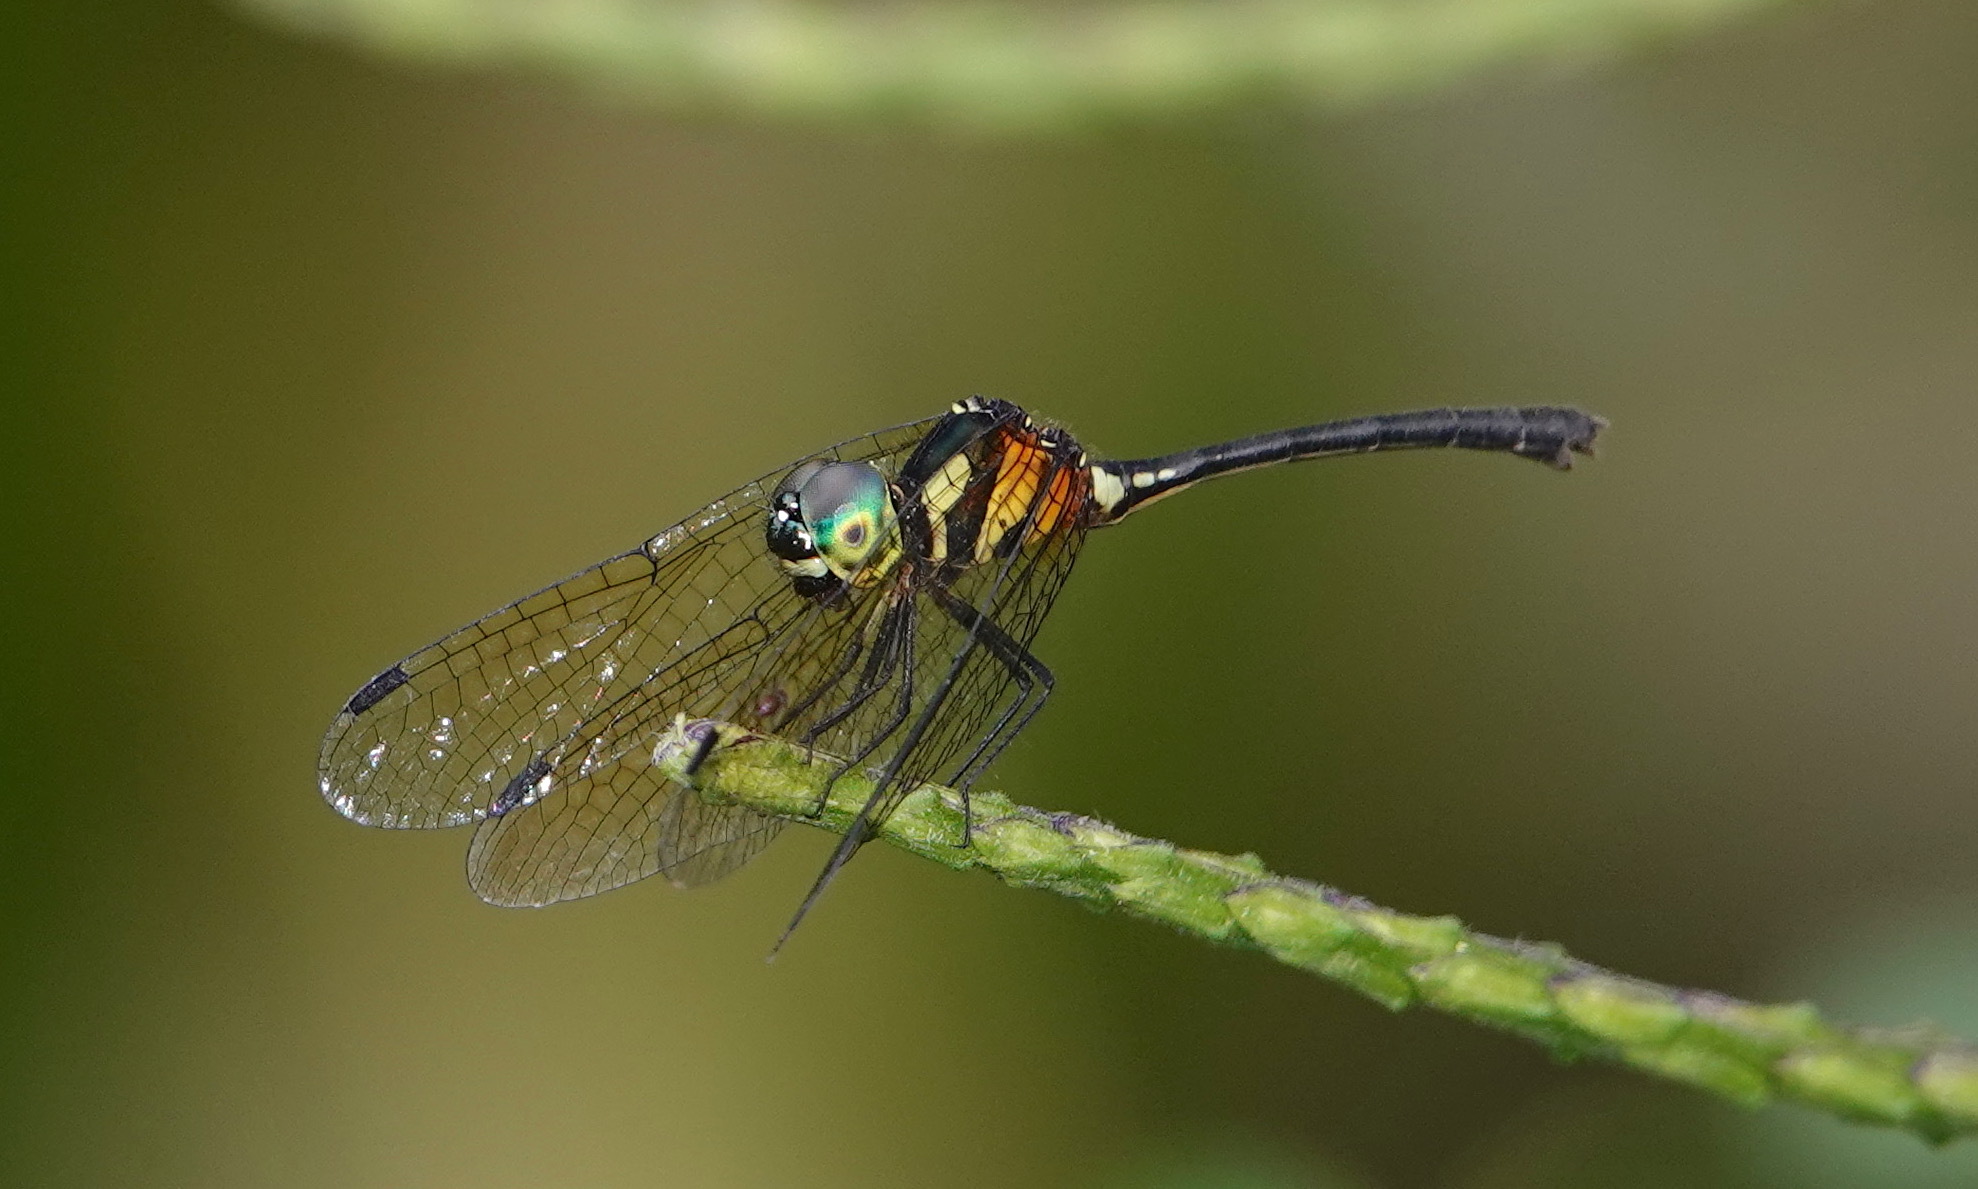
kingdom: Animalia
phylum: Arthropoda
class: Insecta
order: Odonata
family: Libellulidae
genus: Tetrathemis
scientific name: Tetrathemis irregularis
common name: Elf
